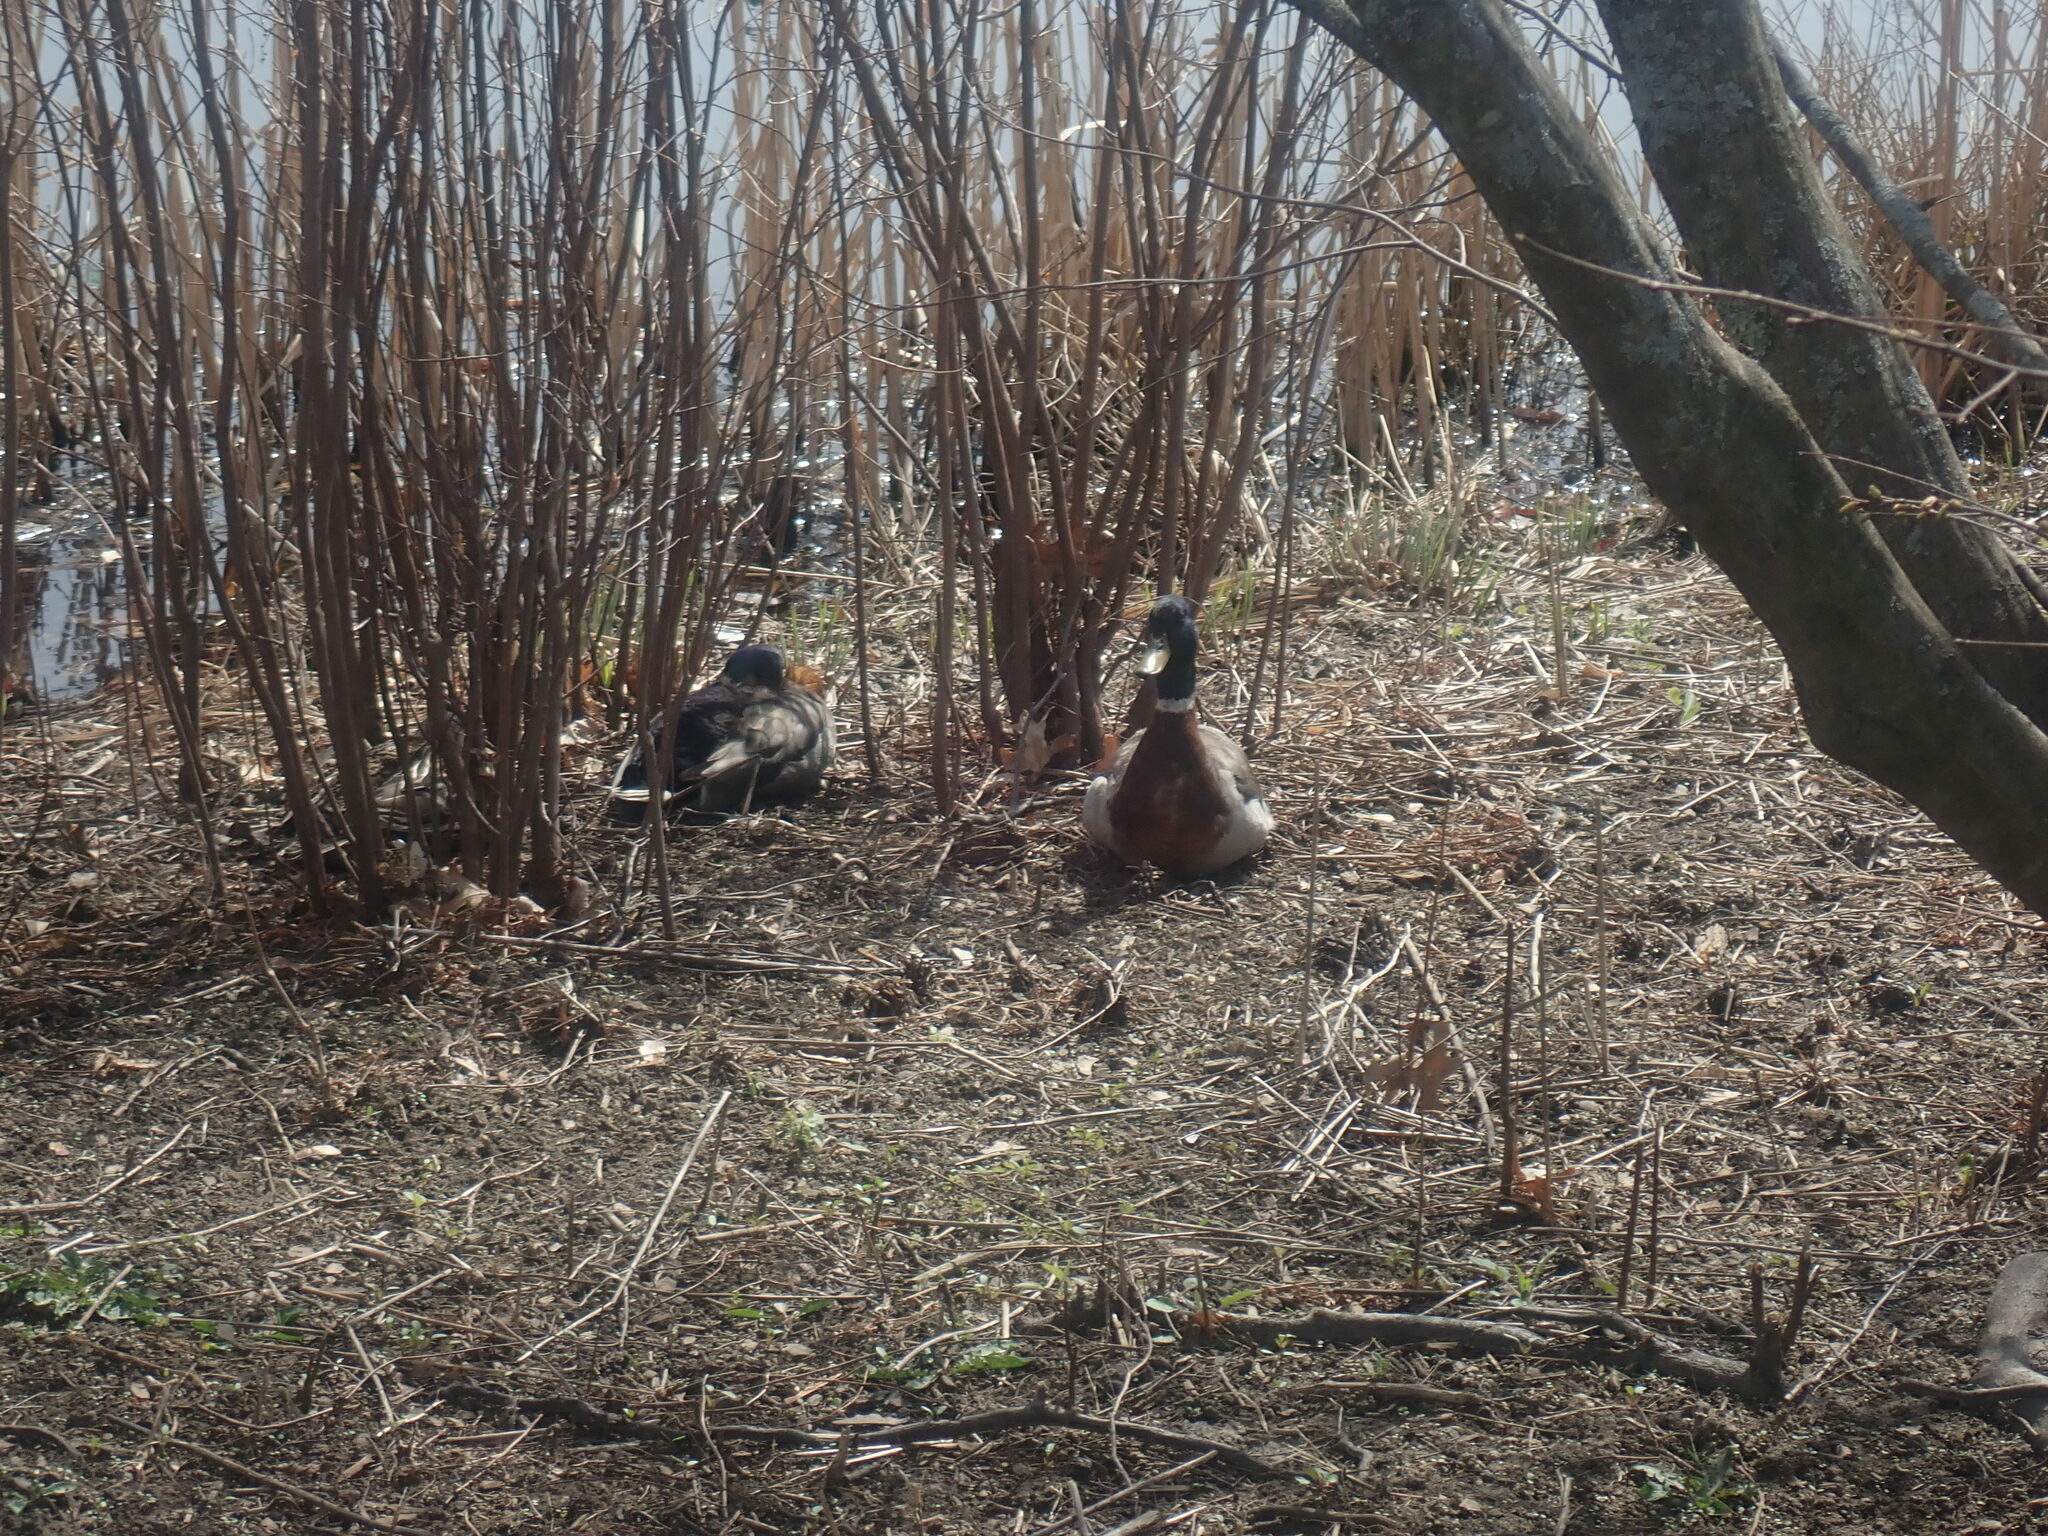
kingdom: Animalia
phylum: Chordata
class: Aves
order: Anseriformes
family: Anatidae
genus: Anas
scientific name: Anas platyrhynchos
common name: Mallard
